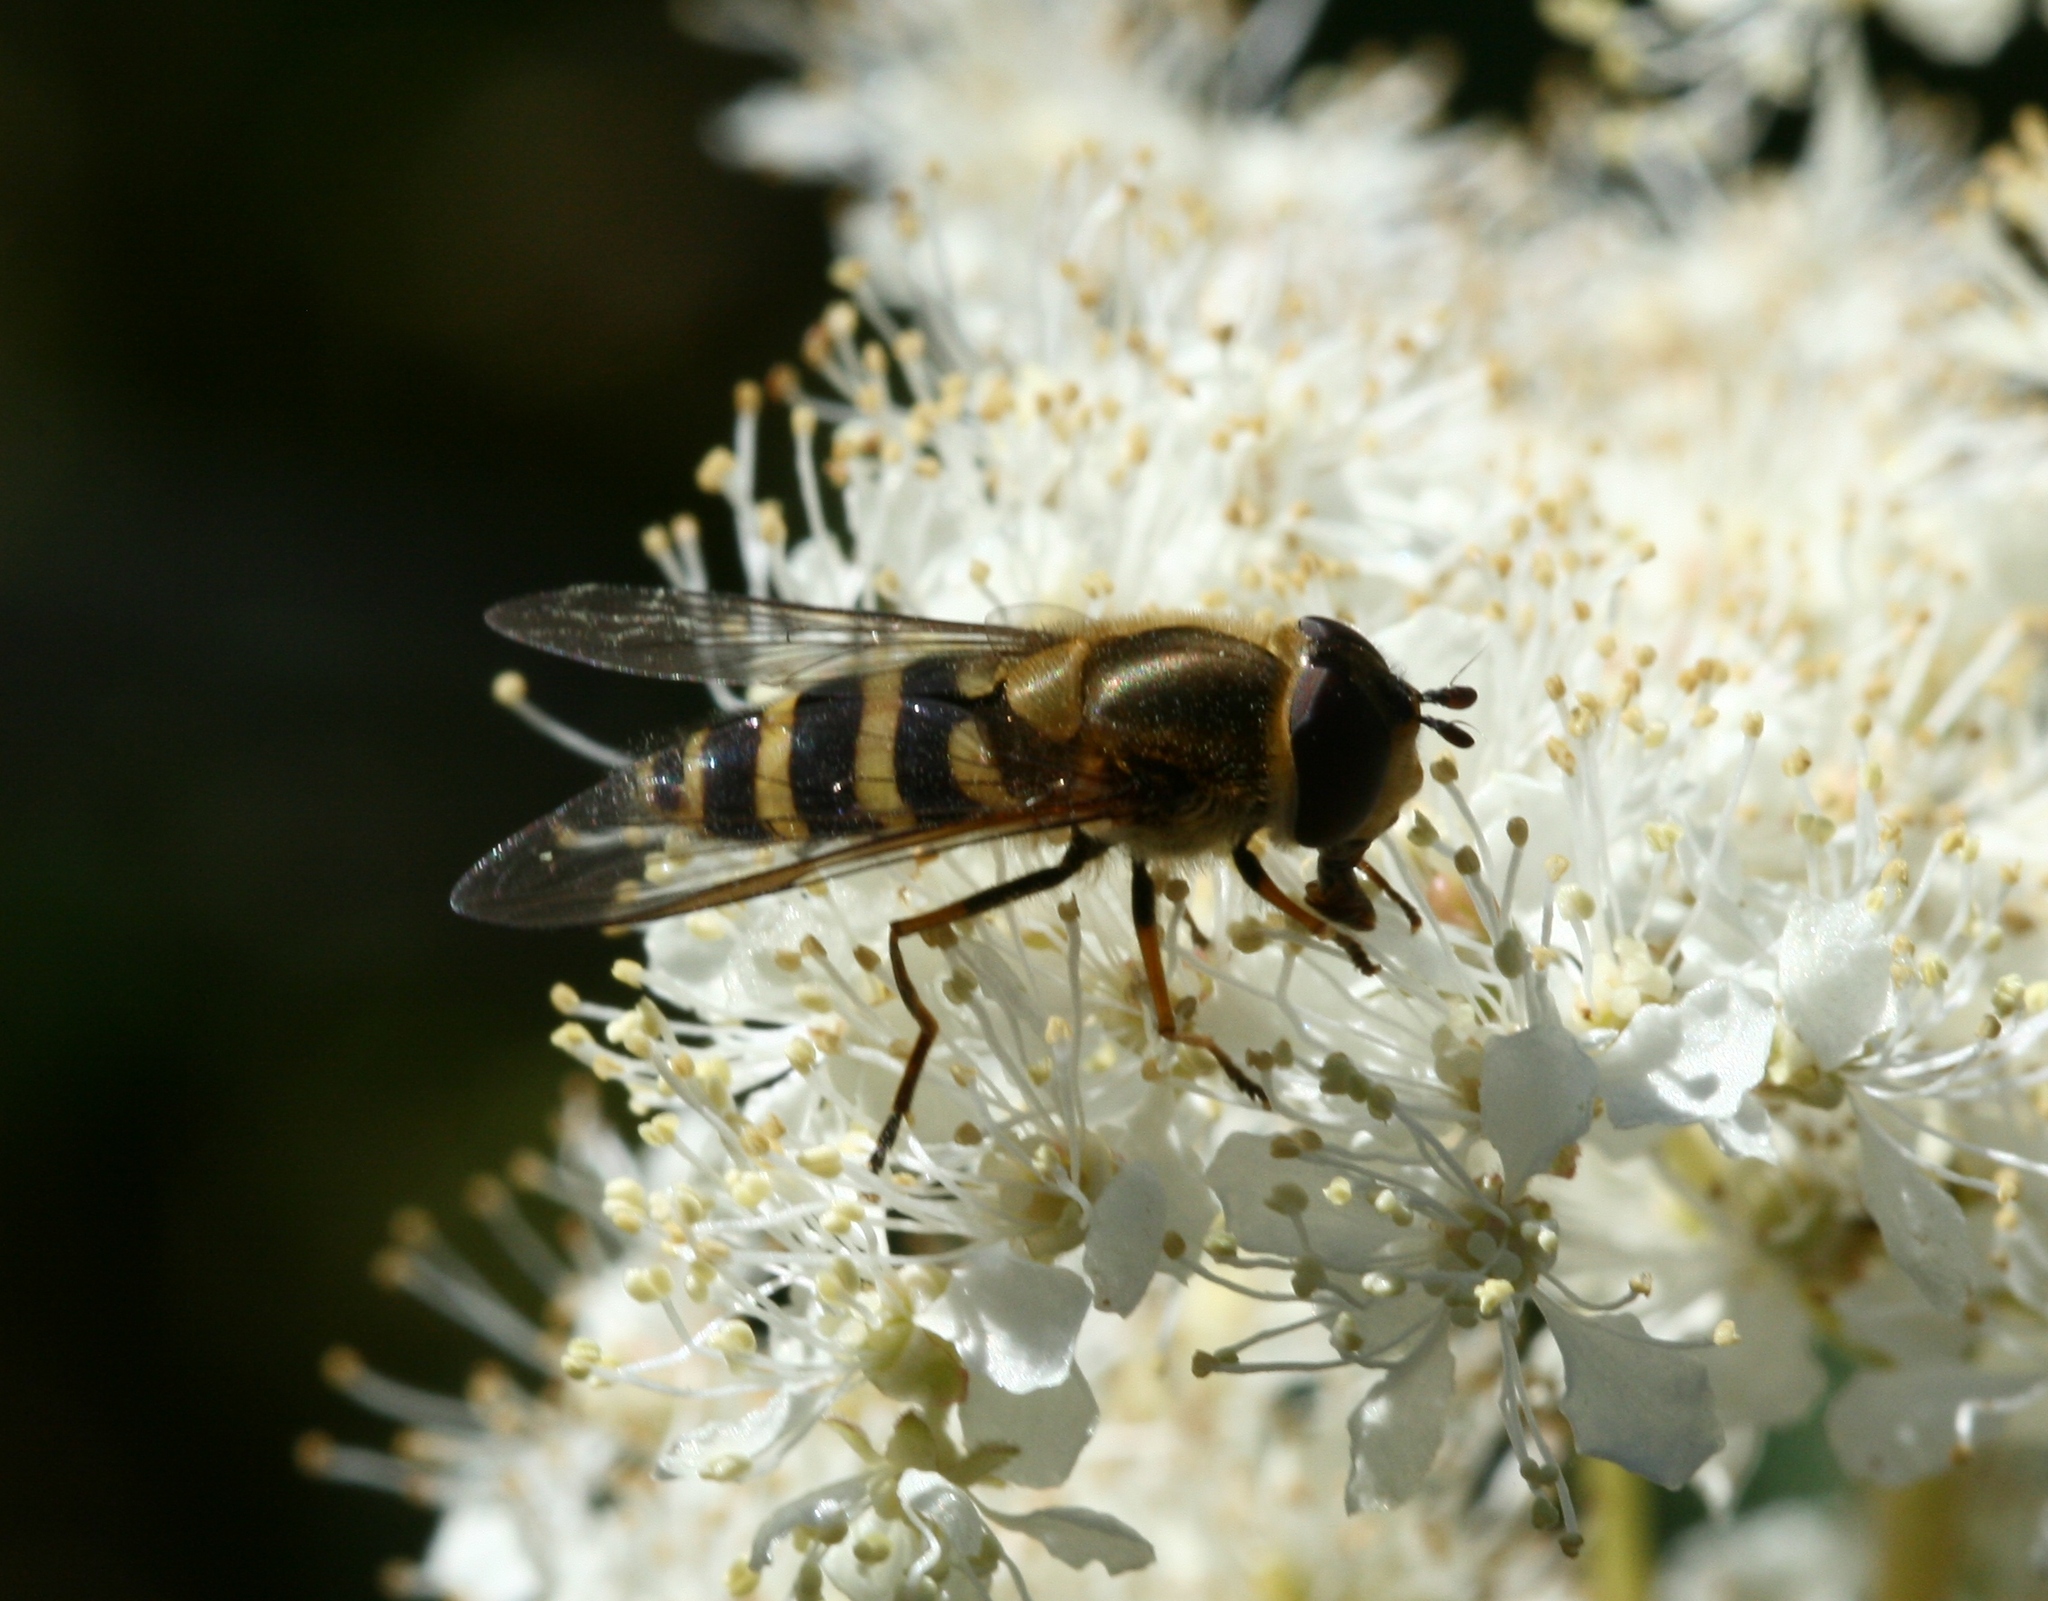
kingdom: Animalia
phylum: Arthropoda
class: Insecta
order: Diptera
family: Syrphidae
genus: Syrphus
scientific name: Syrphus torvus
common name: Hairy-eyed flower fly
